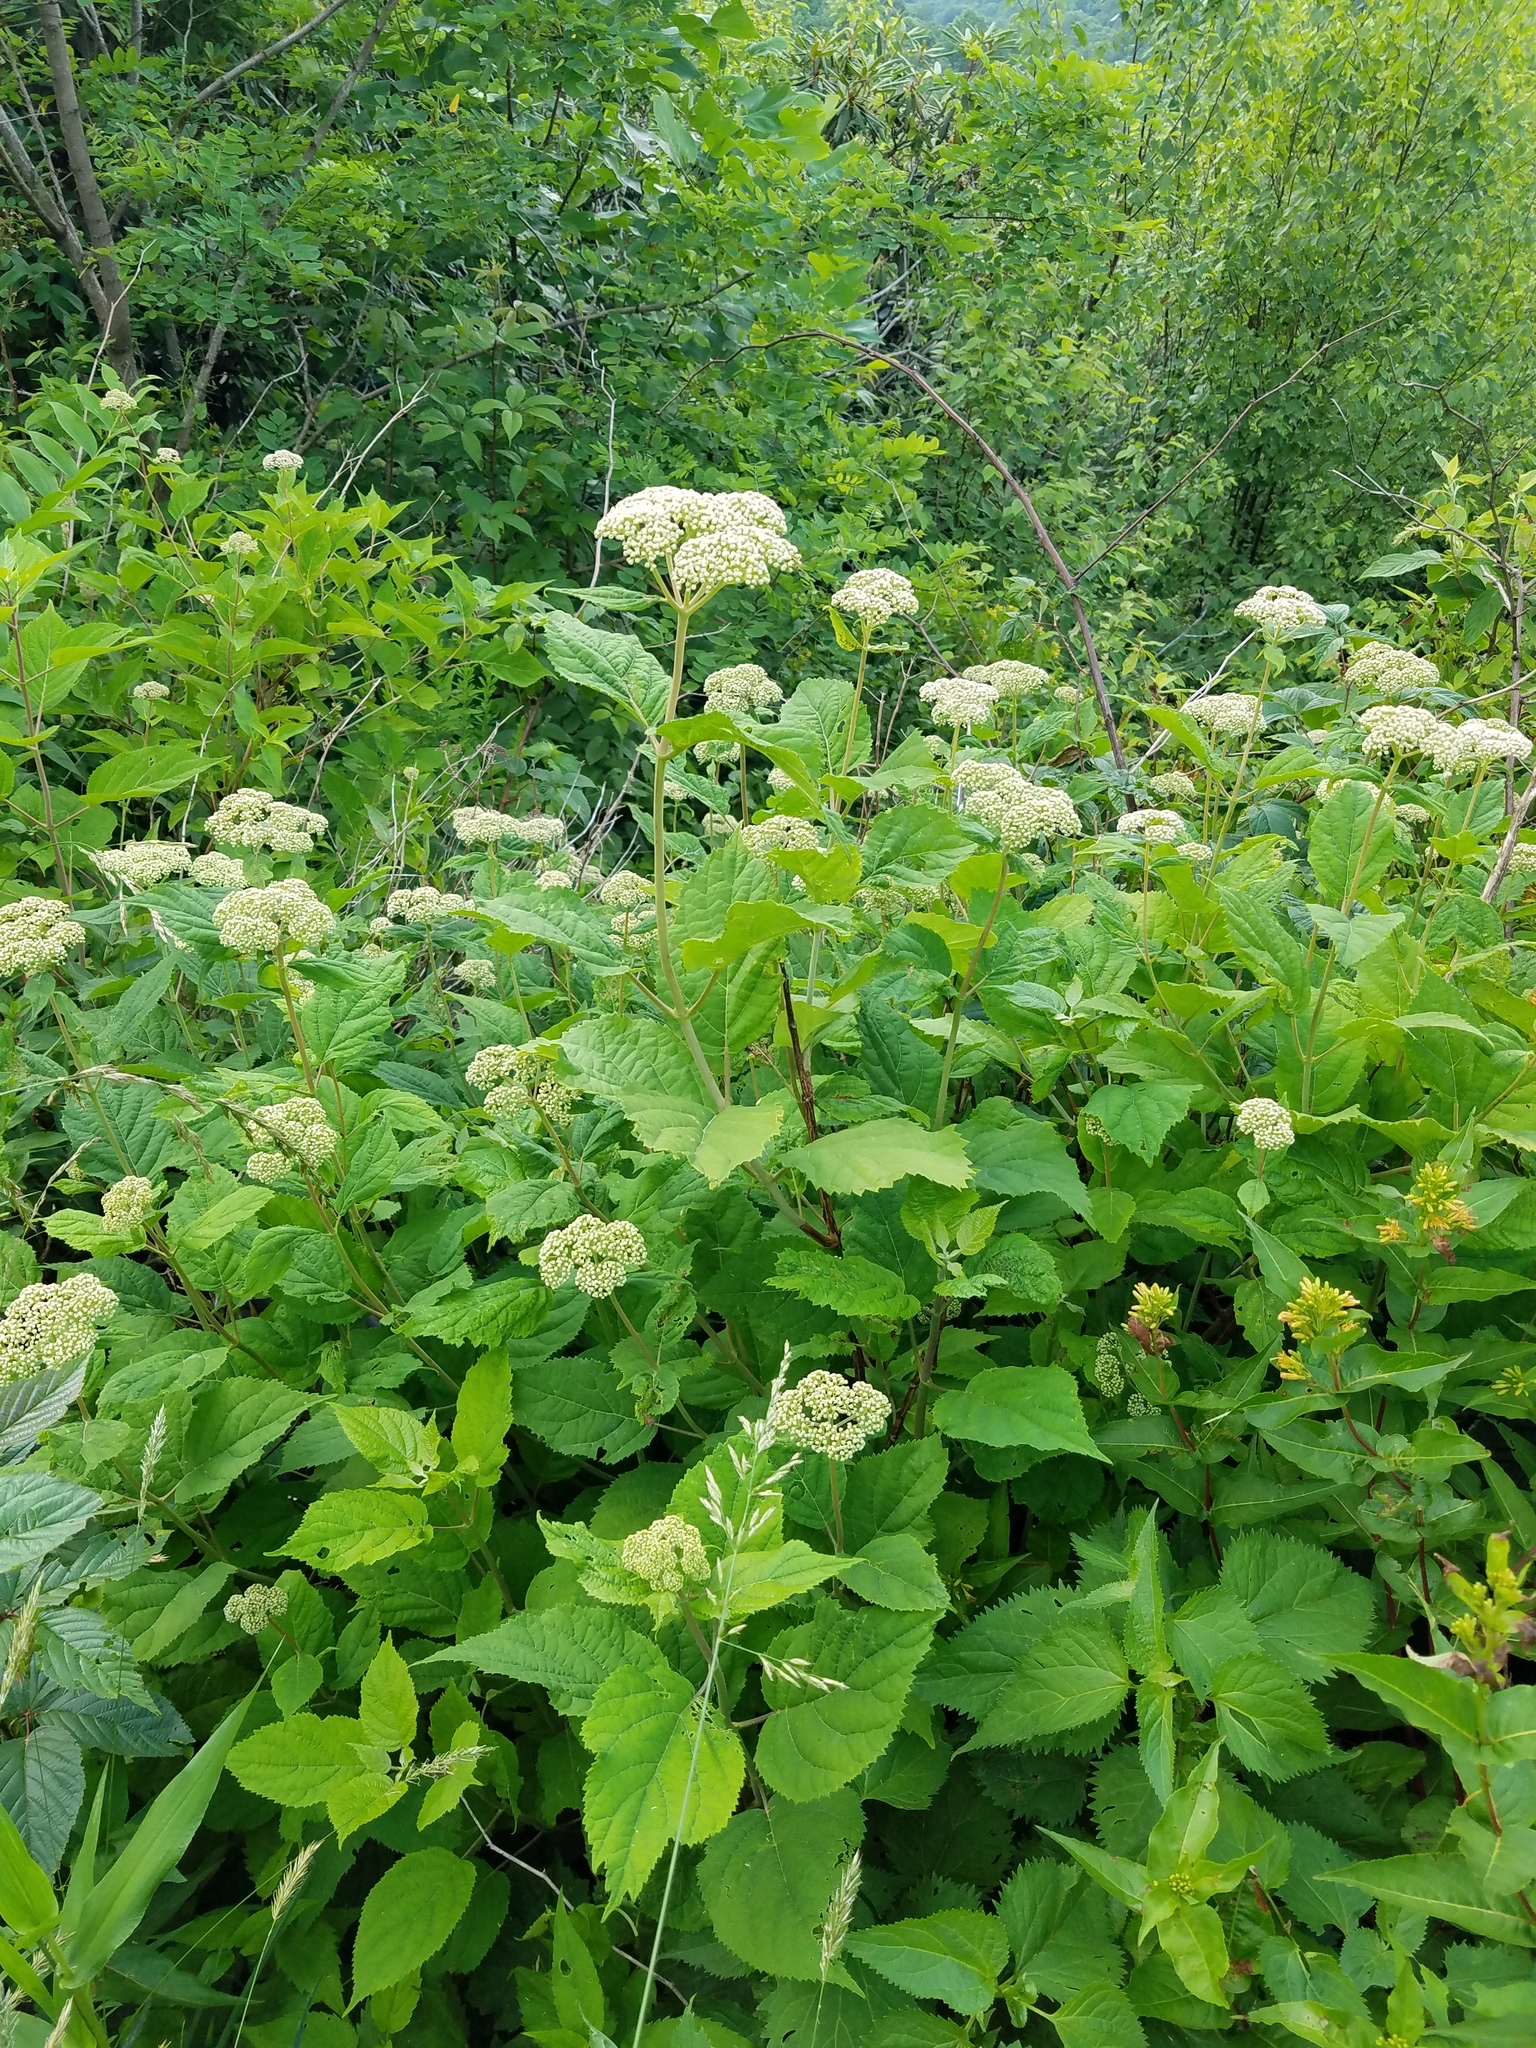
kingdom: Plantae
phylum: Tracheophyta
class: Magnoliopsida
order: Cornales
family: Hydrangeaceae
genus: Hydrangea
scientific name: Hydrangea arborescens
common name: Sevenbark
